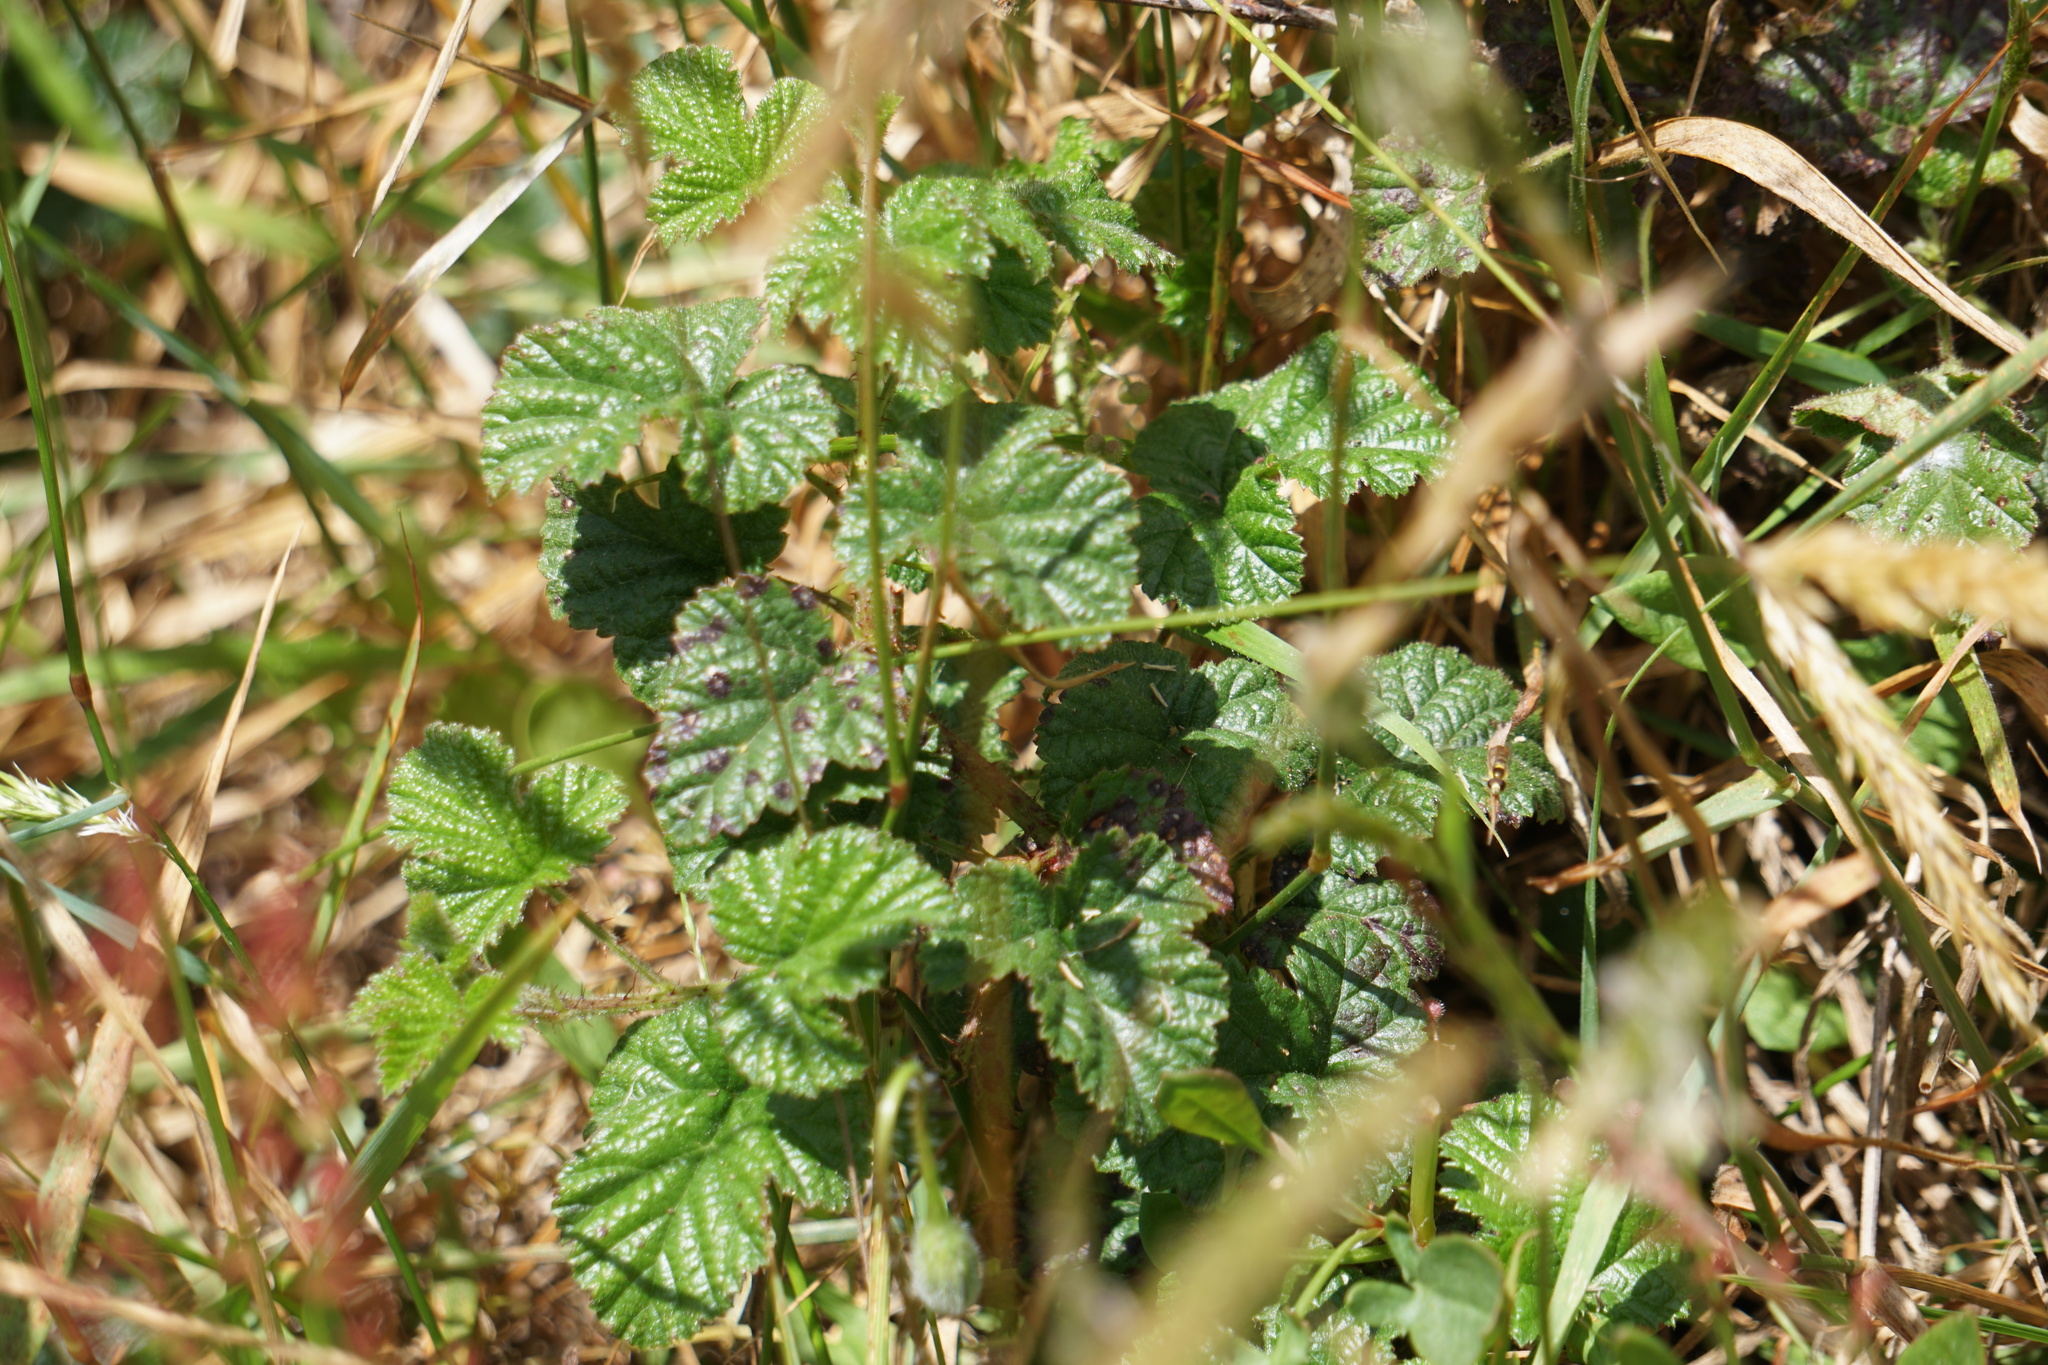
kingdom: Plantae
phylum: Tracheophyta
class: Magnoliopsida
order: Rosales
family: Rosaceae
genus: Rubus
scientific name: Rubus ursinus
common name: Pacific blackberry
